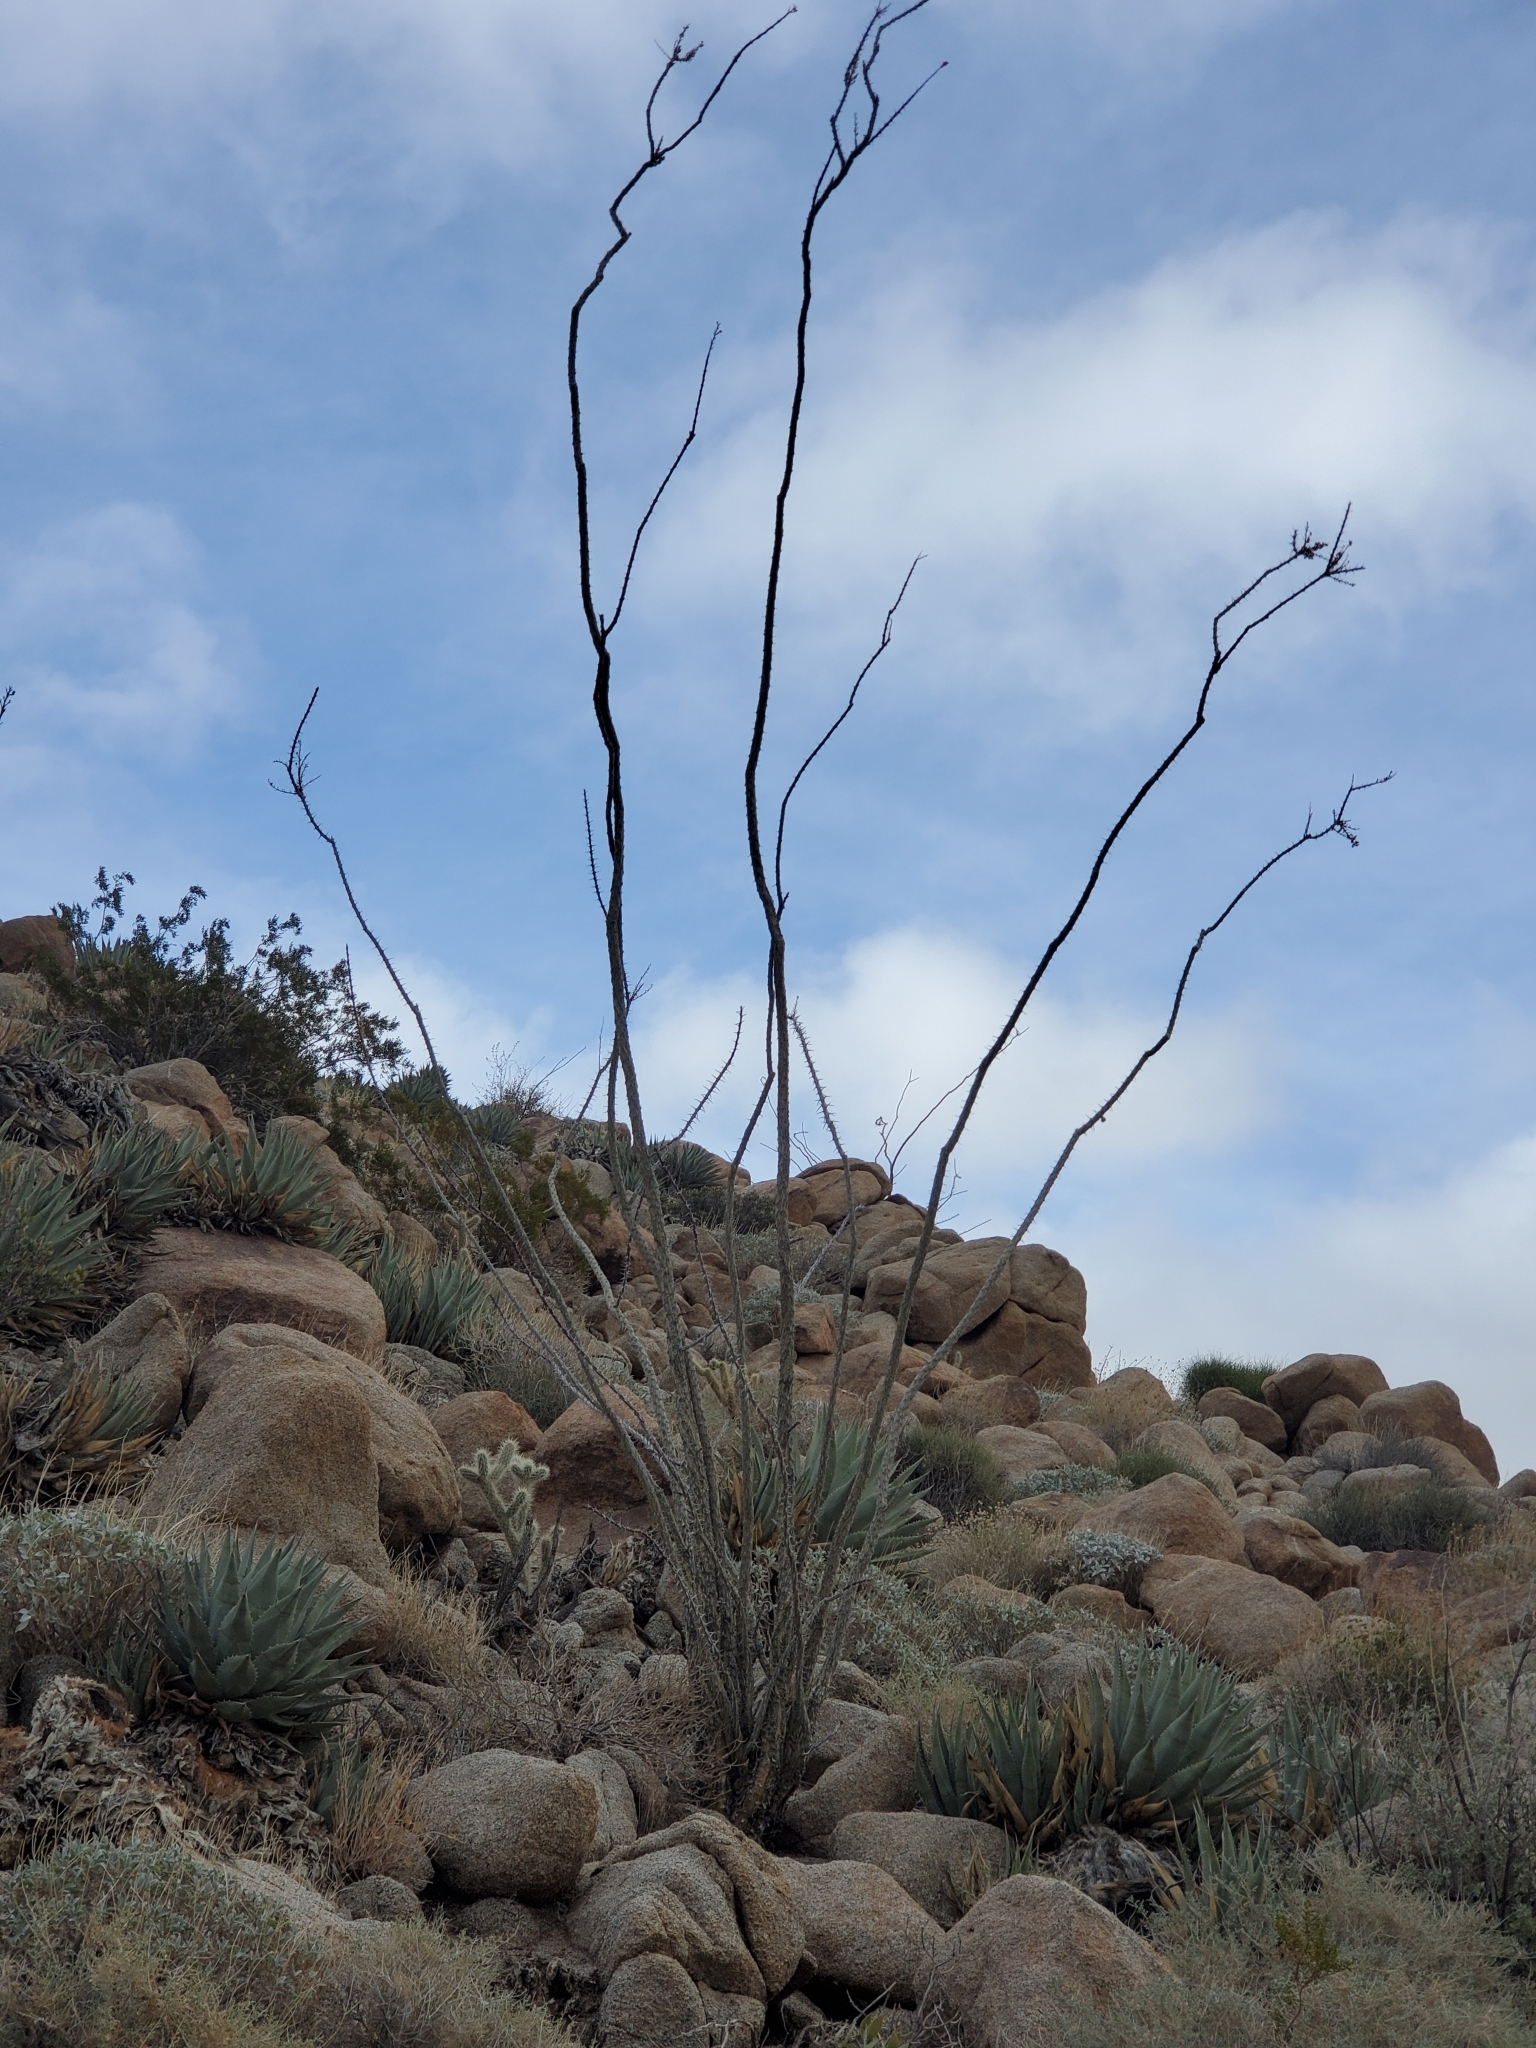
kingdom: Plantae
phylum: Tracheophyta
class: Magnoliopsida
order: Ericales
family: Fouquieriaceae
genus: Fouquieria
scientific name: Fouquieria splendens
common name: Vine-cactus
